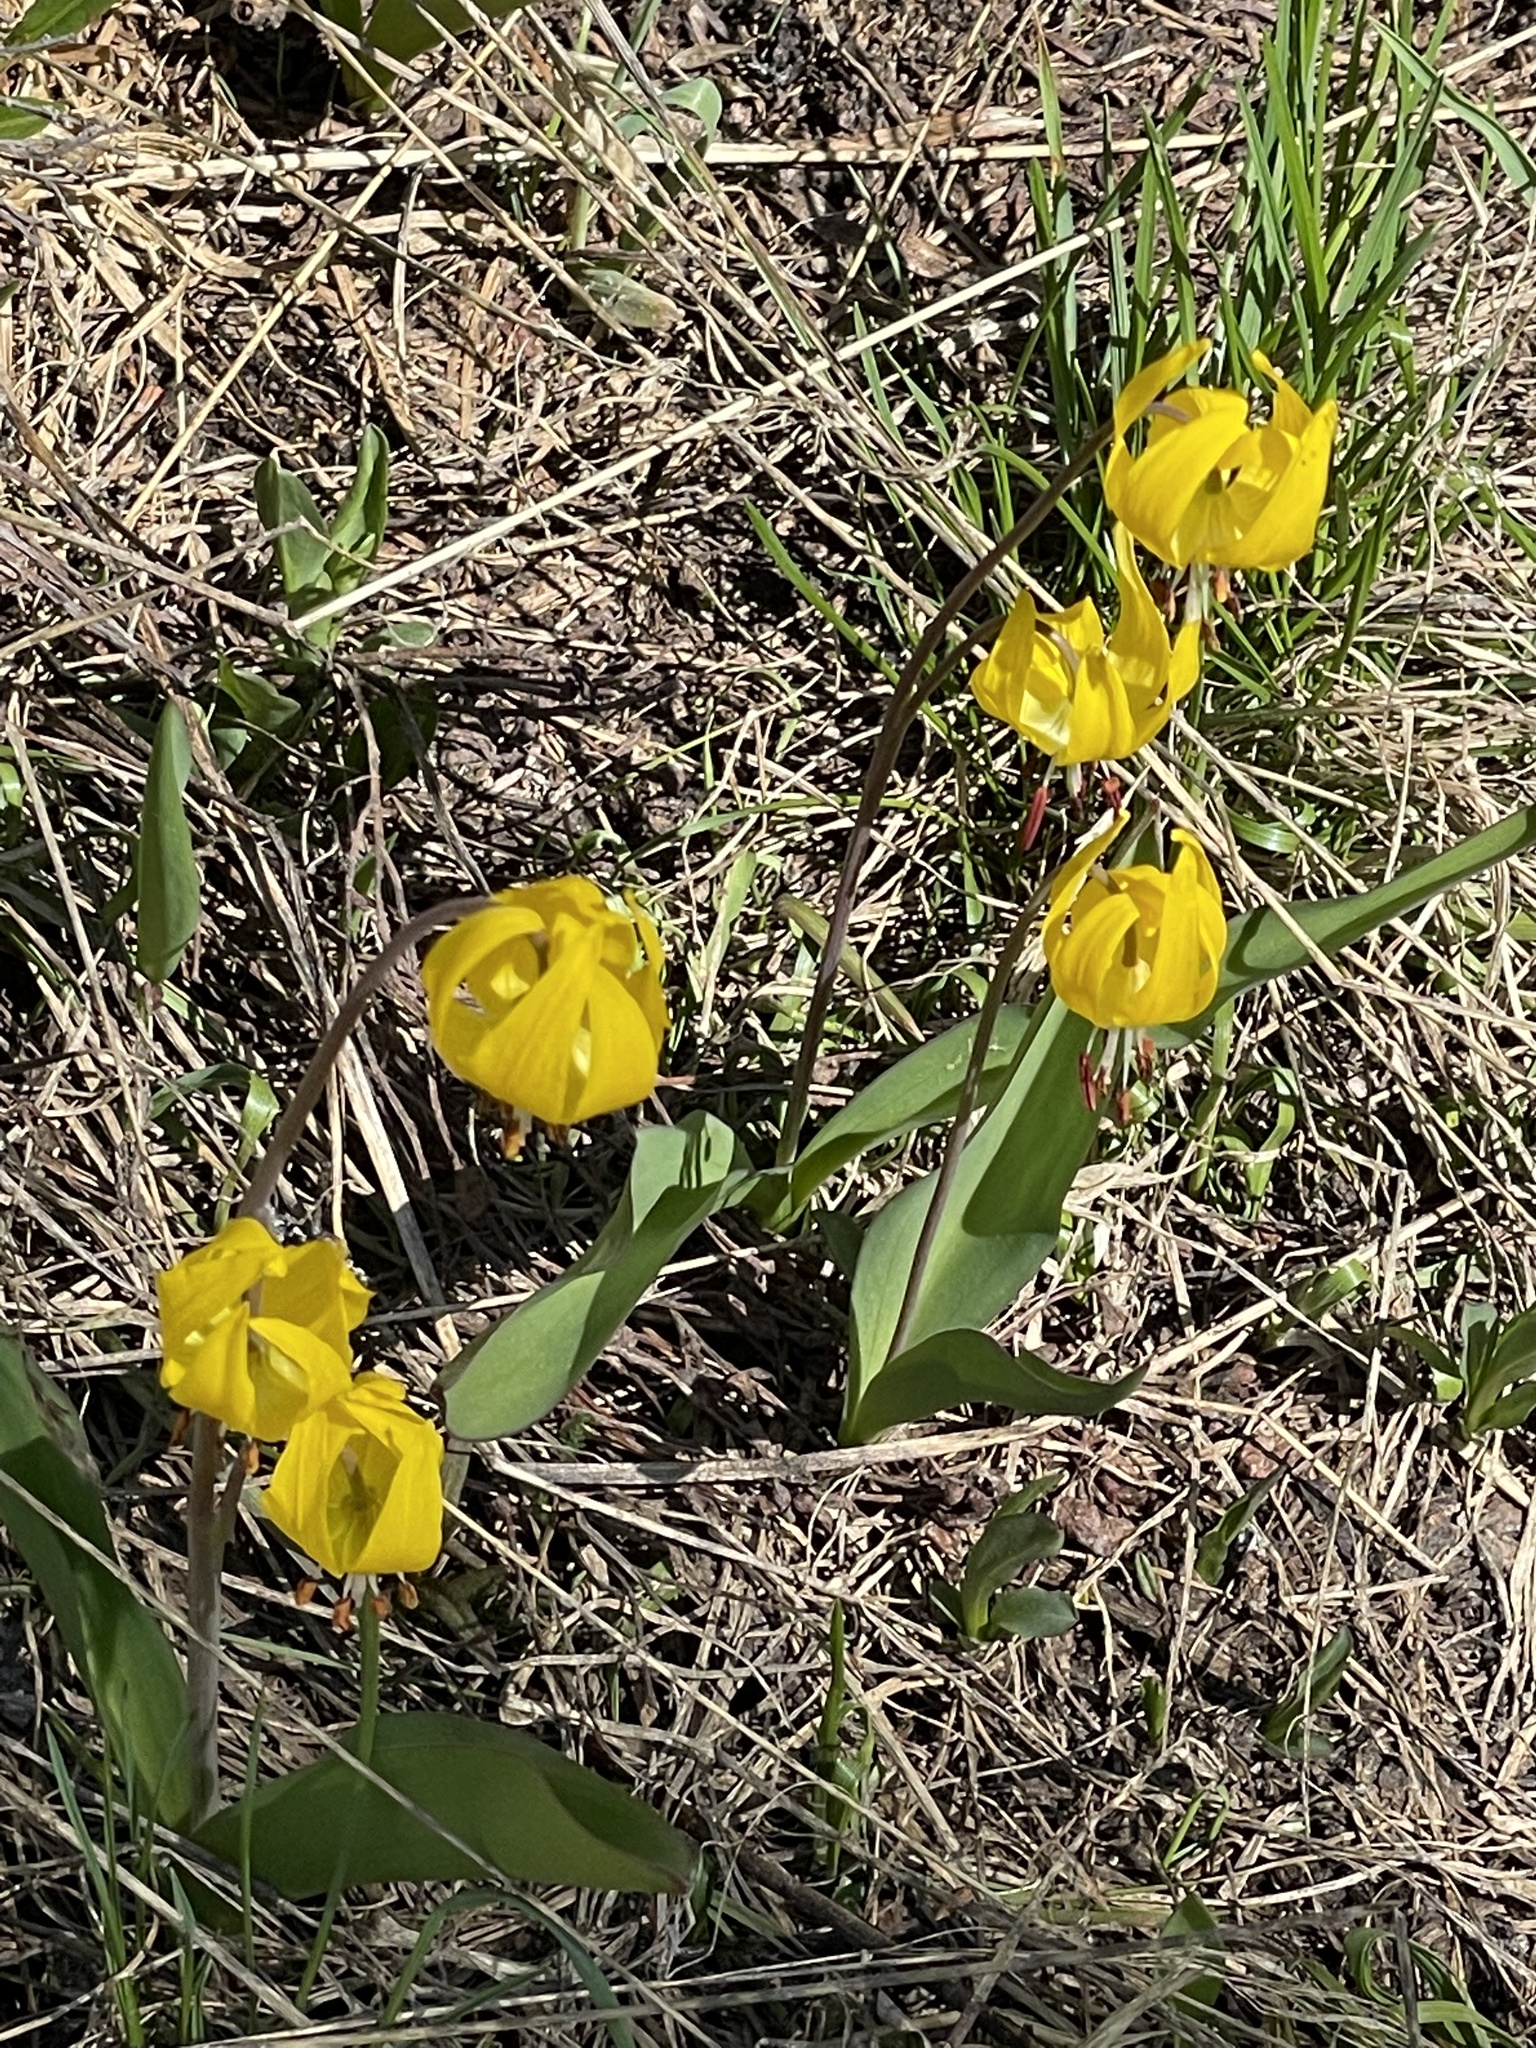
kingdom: Plantae
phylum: Tracheophyta
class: Liliopsida
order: Liliales
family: Liliaceae
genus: Erythronium
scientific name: Erythronium grandiflorum
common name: Avalanche-lily
